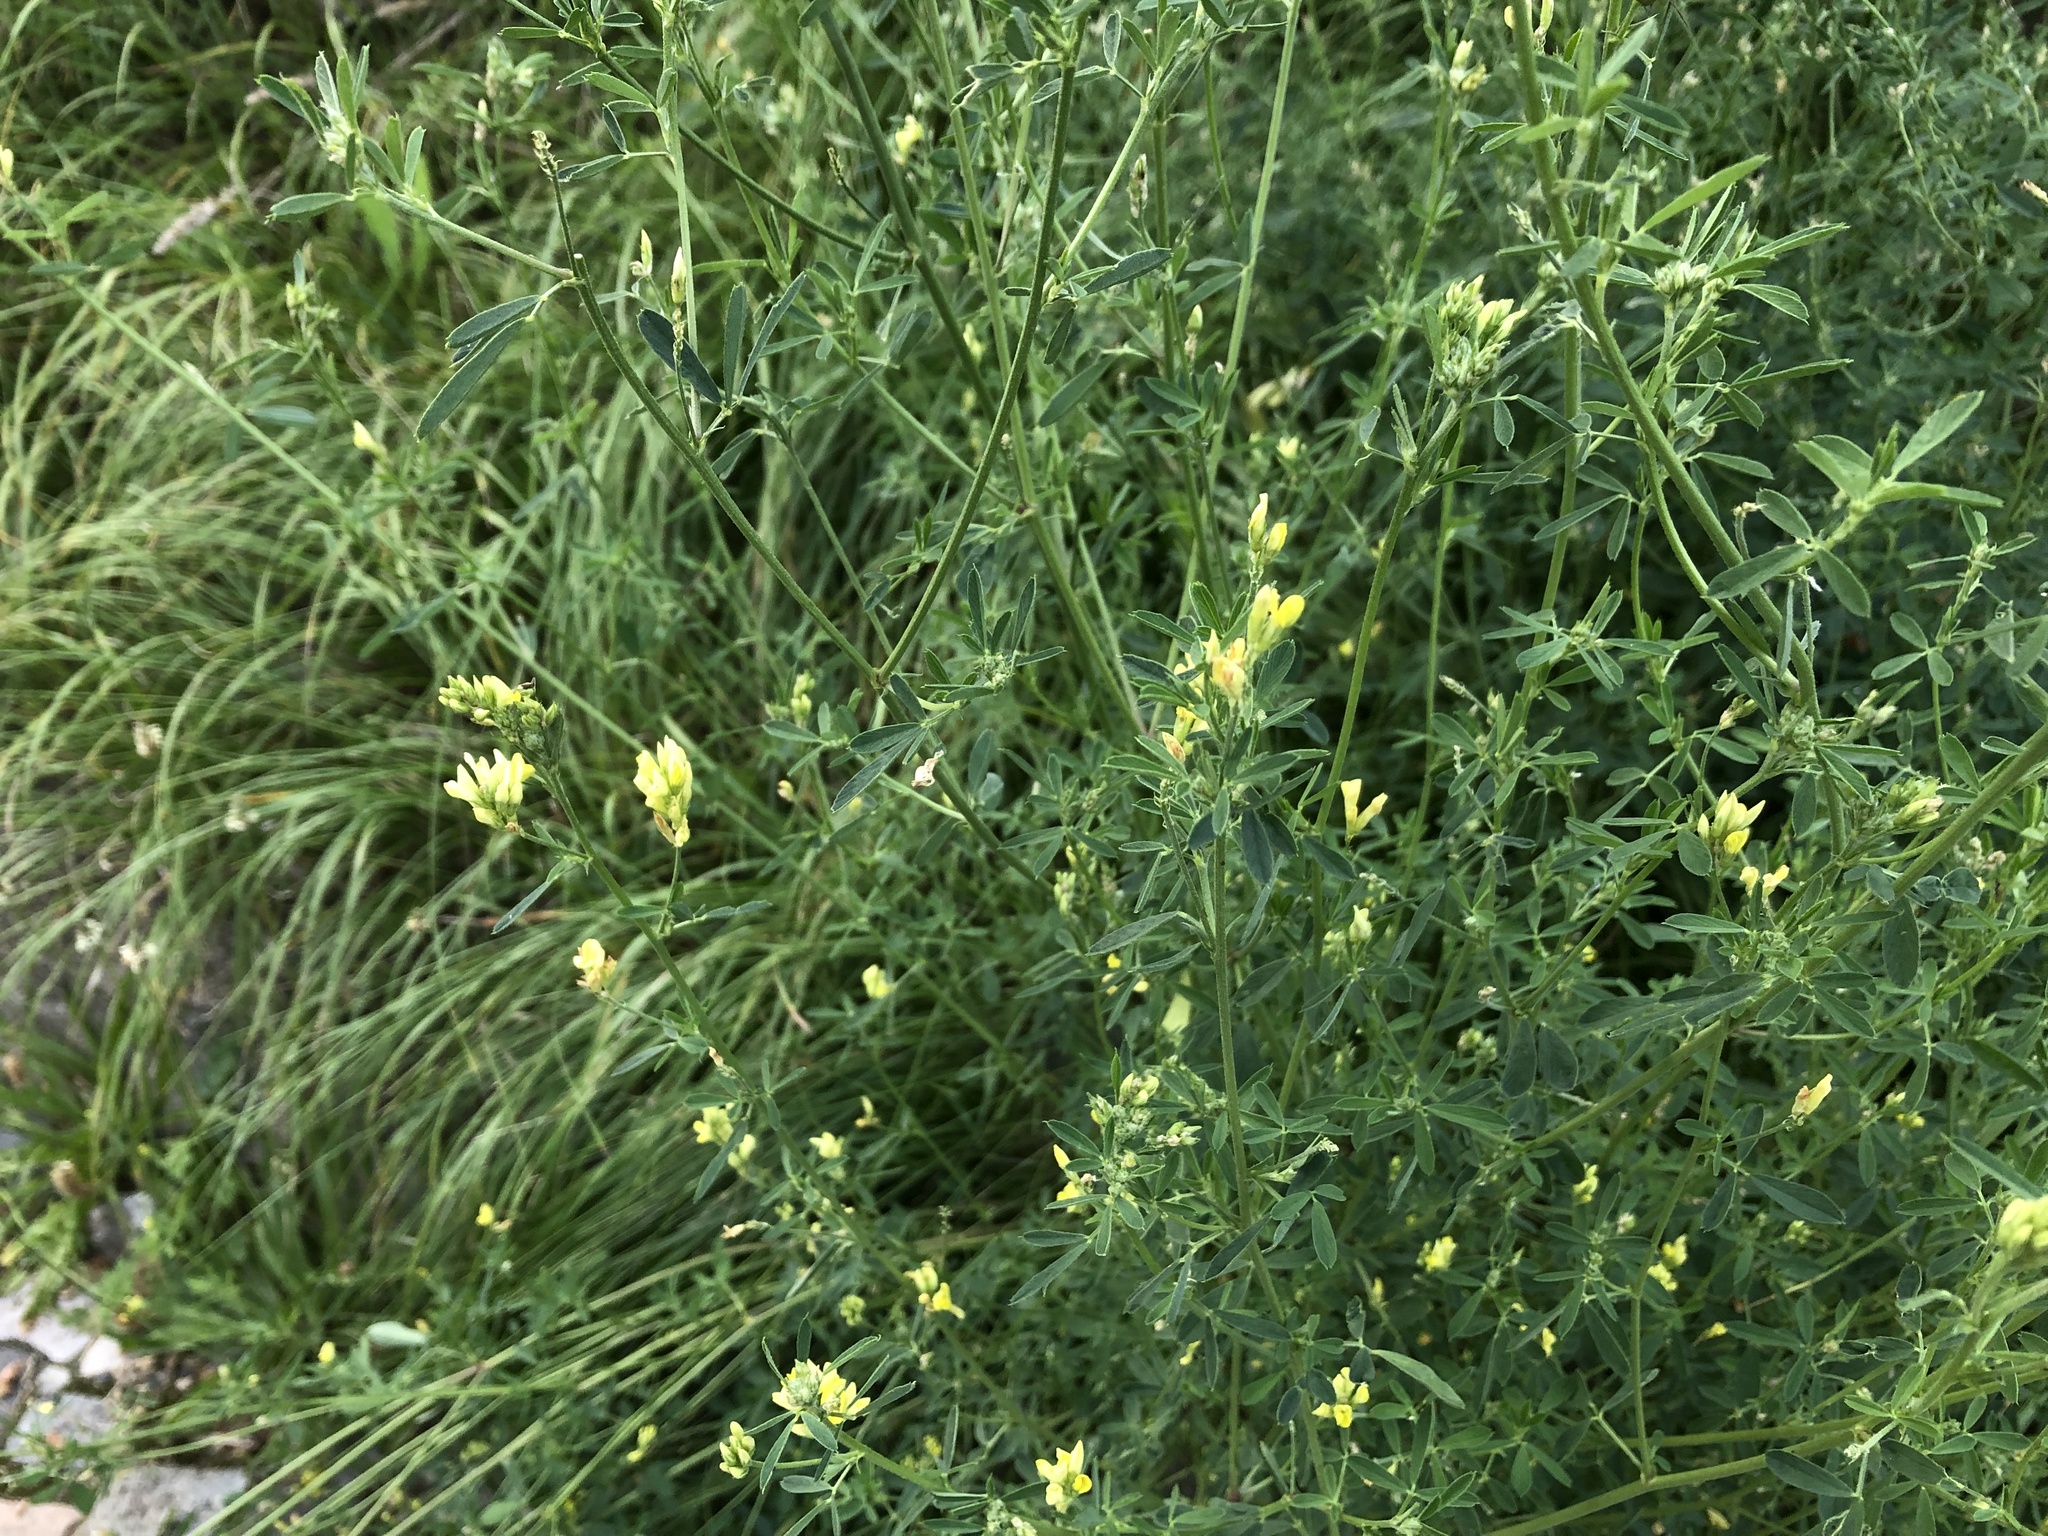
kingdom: Plantae
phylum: Tracheophyta
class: Magnoliopsida
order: Fabales
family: Fabaceae
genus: Medicago
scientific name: Medicago falcata
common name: Sickle medick
